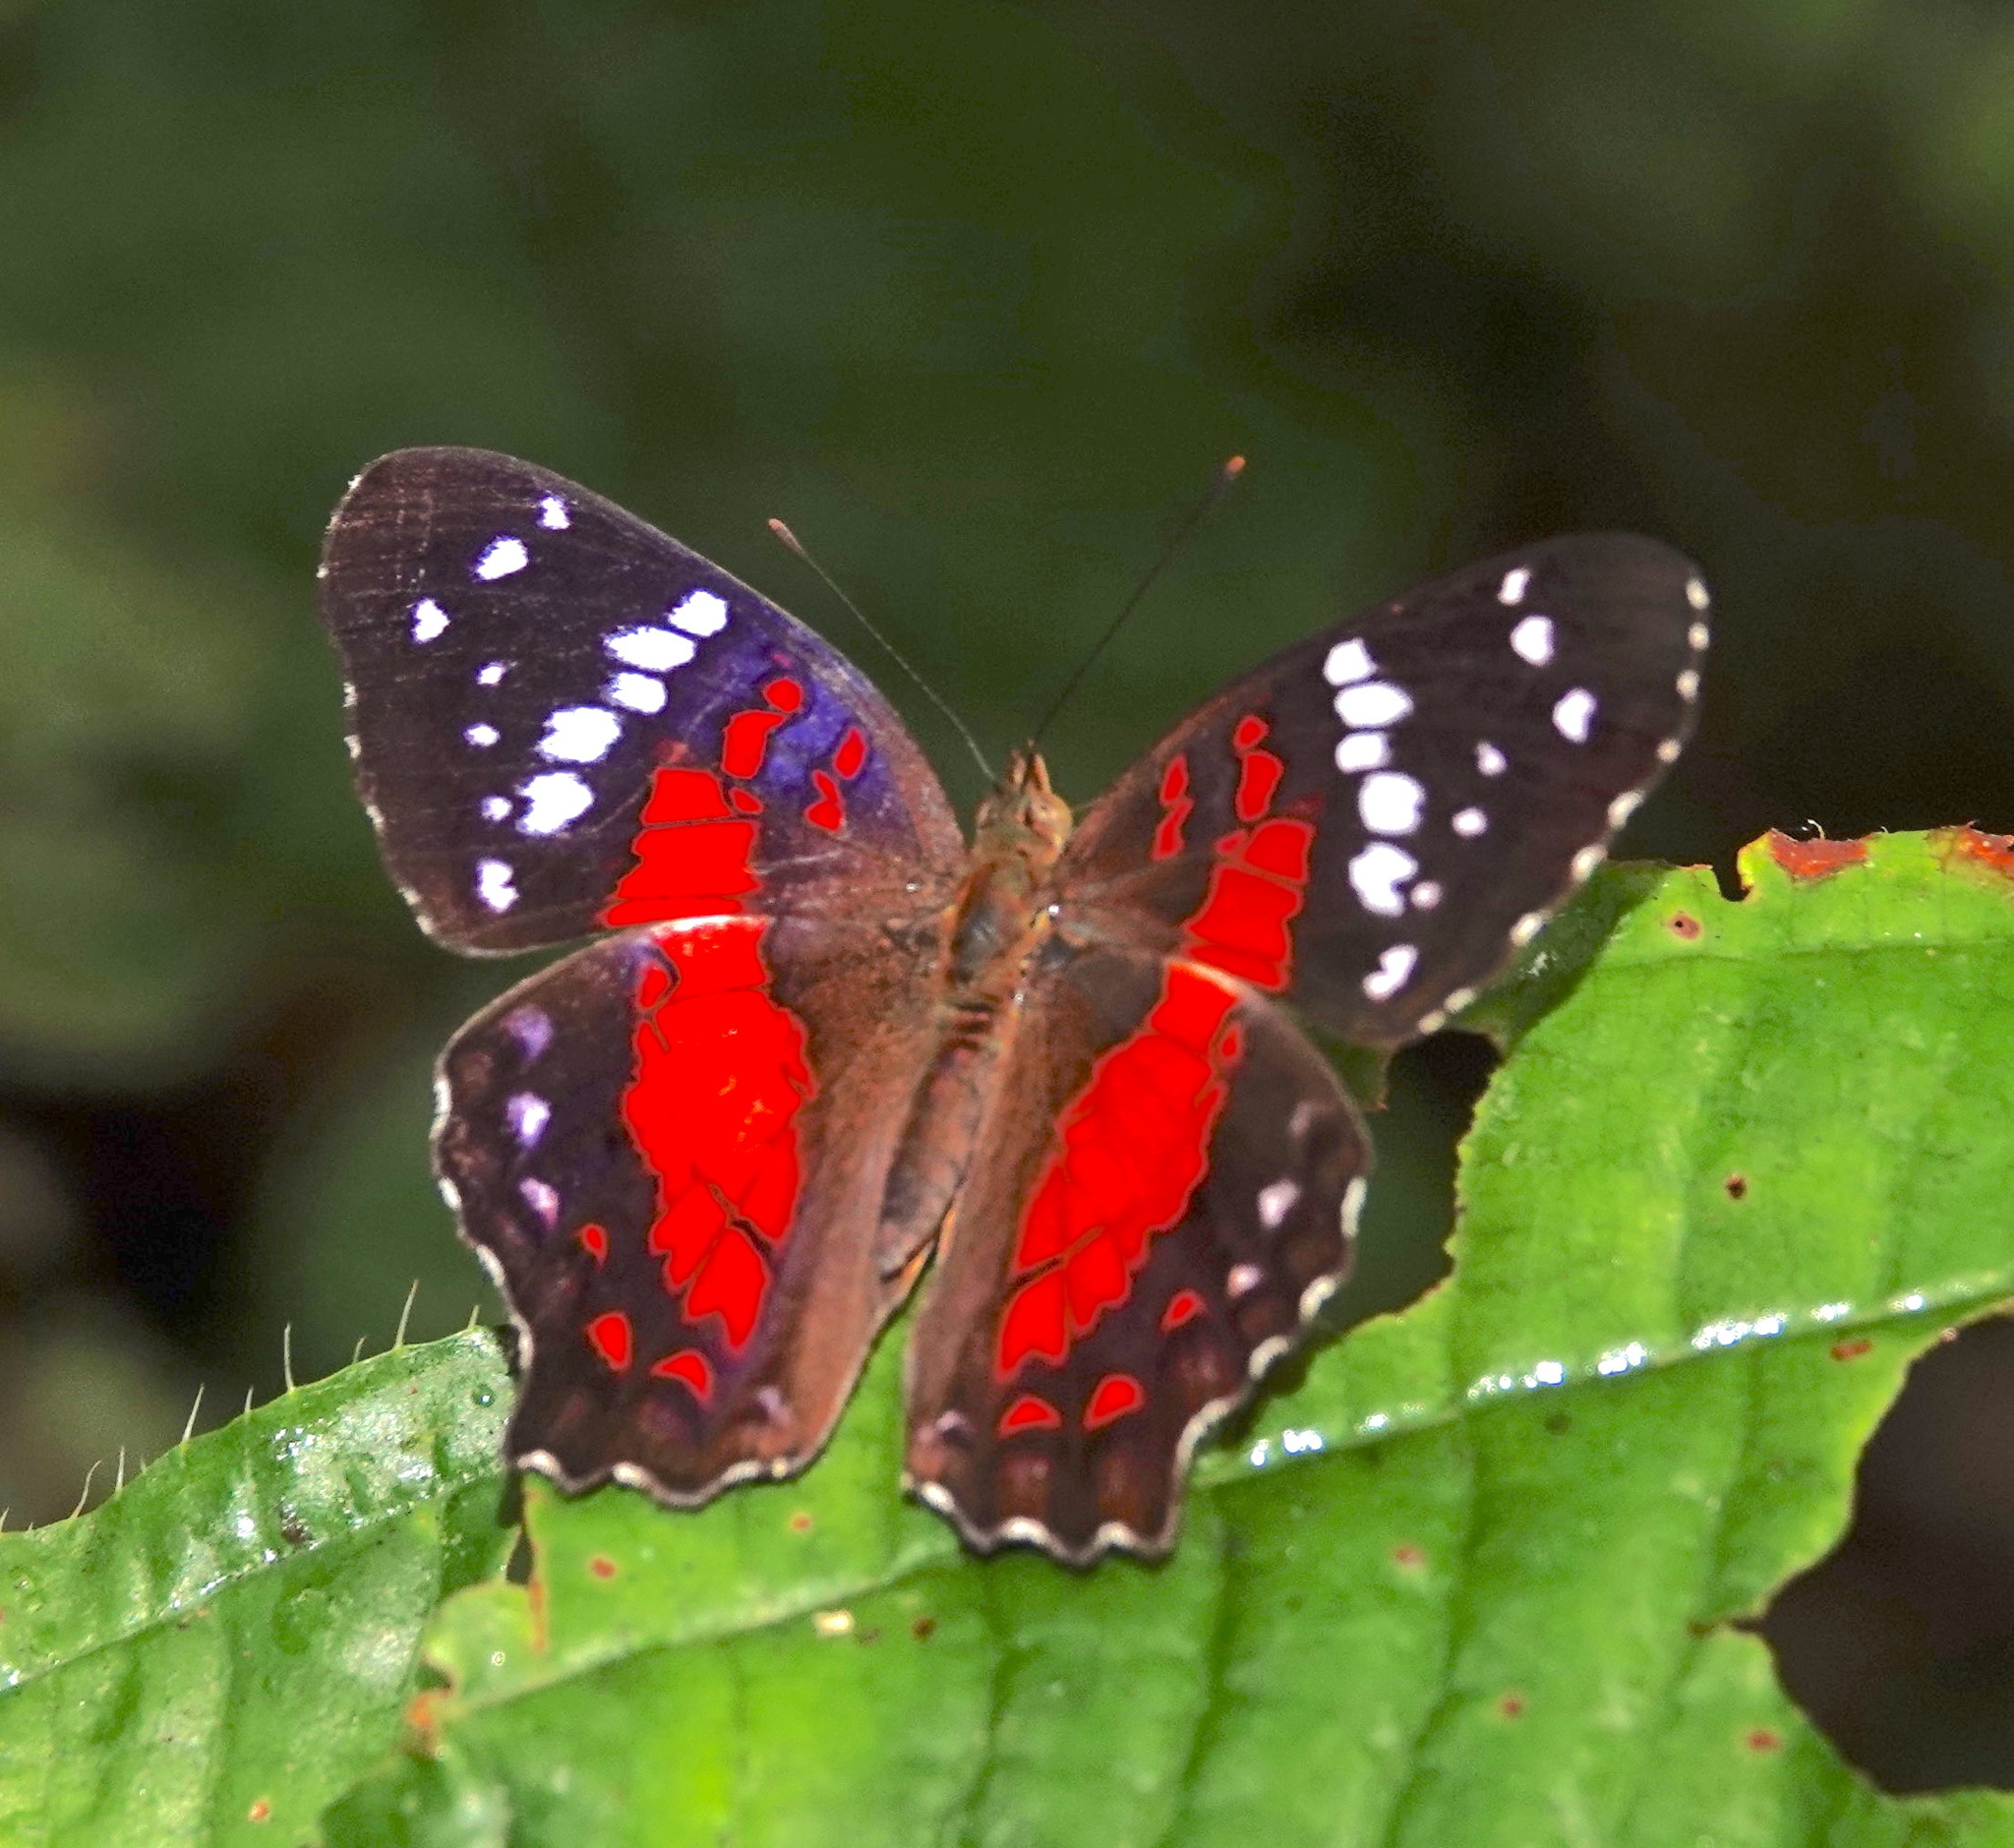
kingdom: Animalia
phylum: Arthropoda
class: Insecta
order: Lepidoptera
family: Nymphalidae
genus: Anartia
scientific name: Anartia amathea
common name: Red peacock
